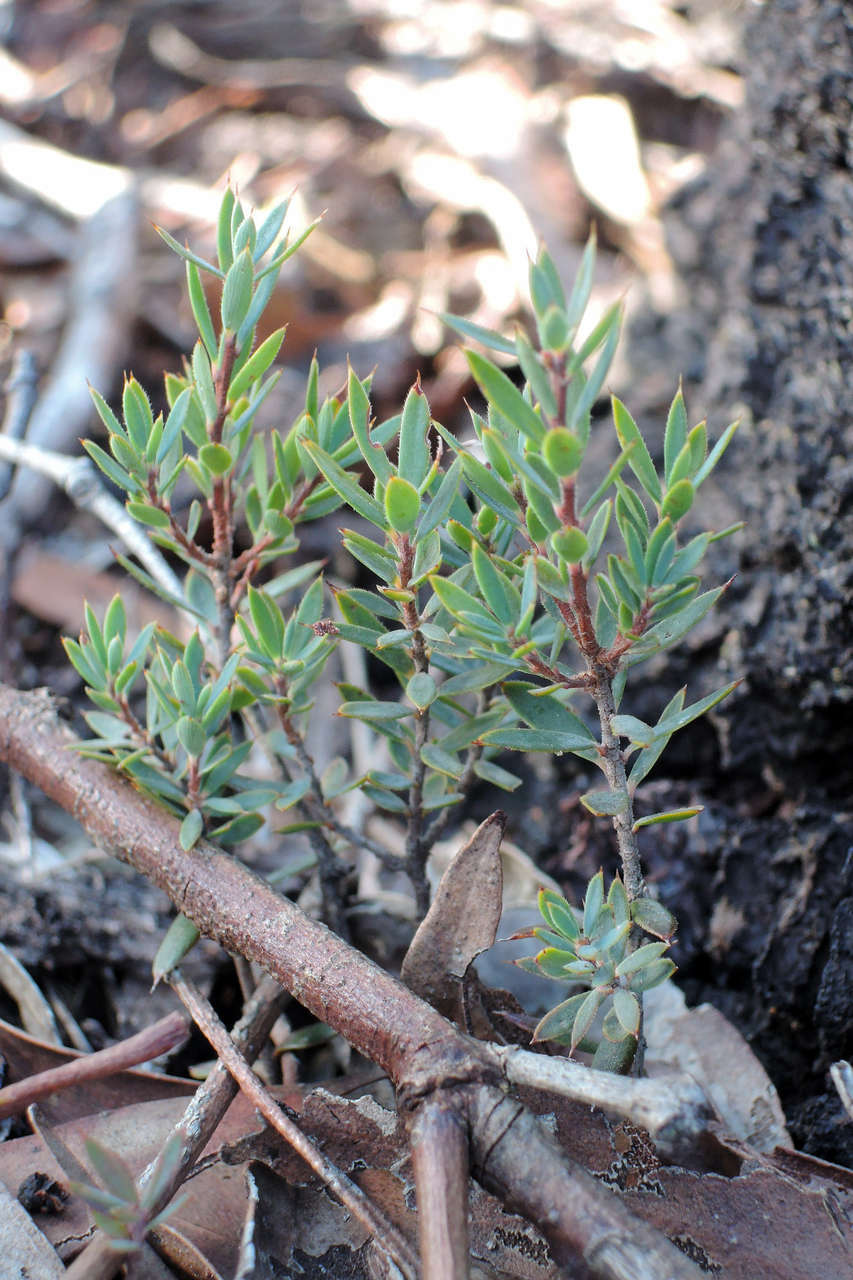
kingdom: Plantae
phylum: Tracheophyta
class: Magnoliopsida
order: Ericales
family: Ericaceae
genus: Brachyloma
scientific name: Brachyloma ciliatum
